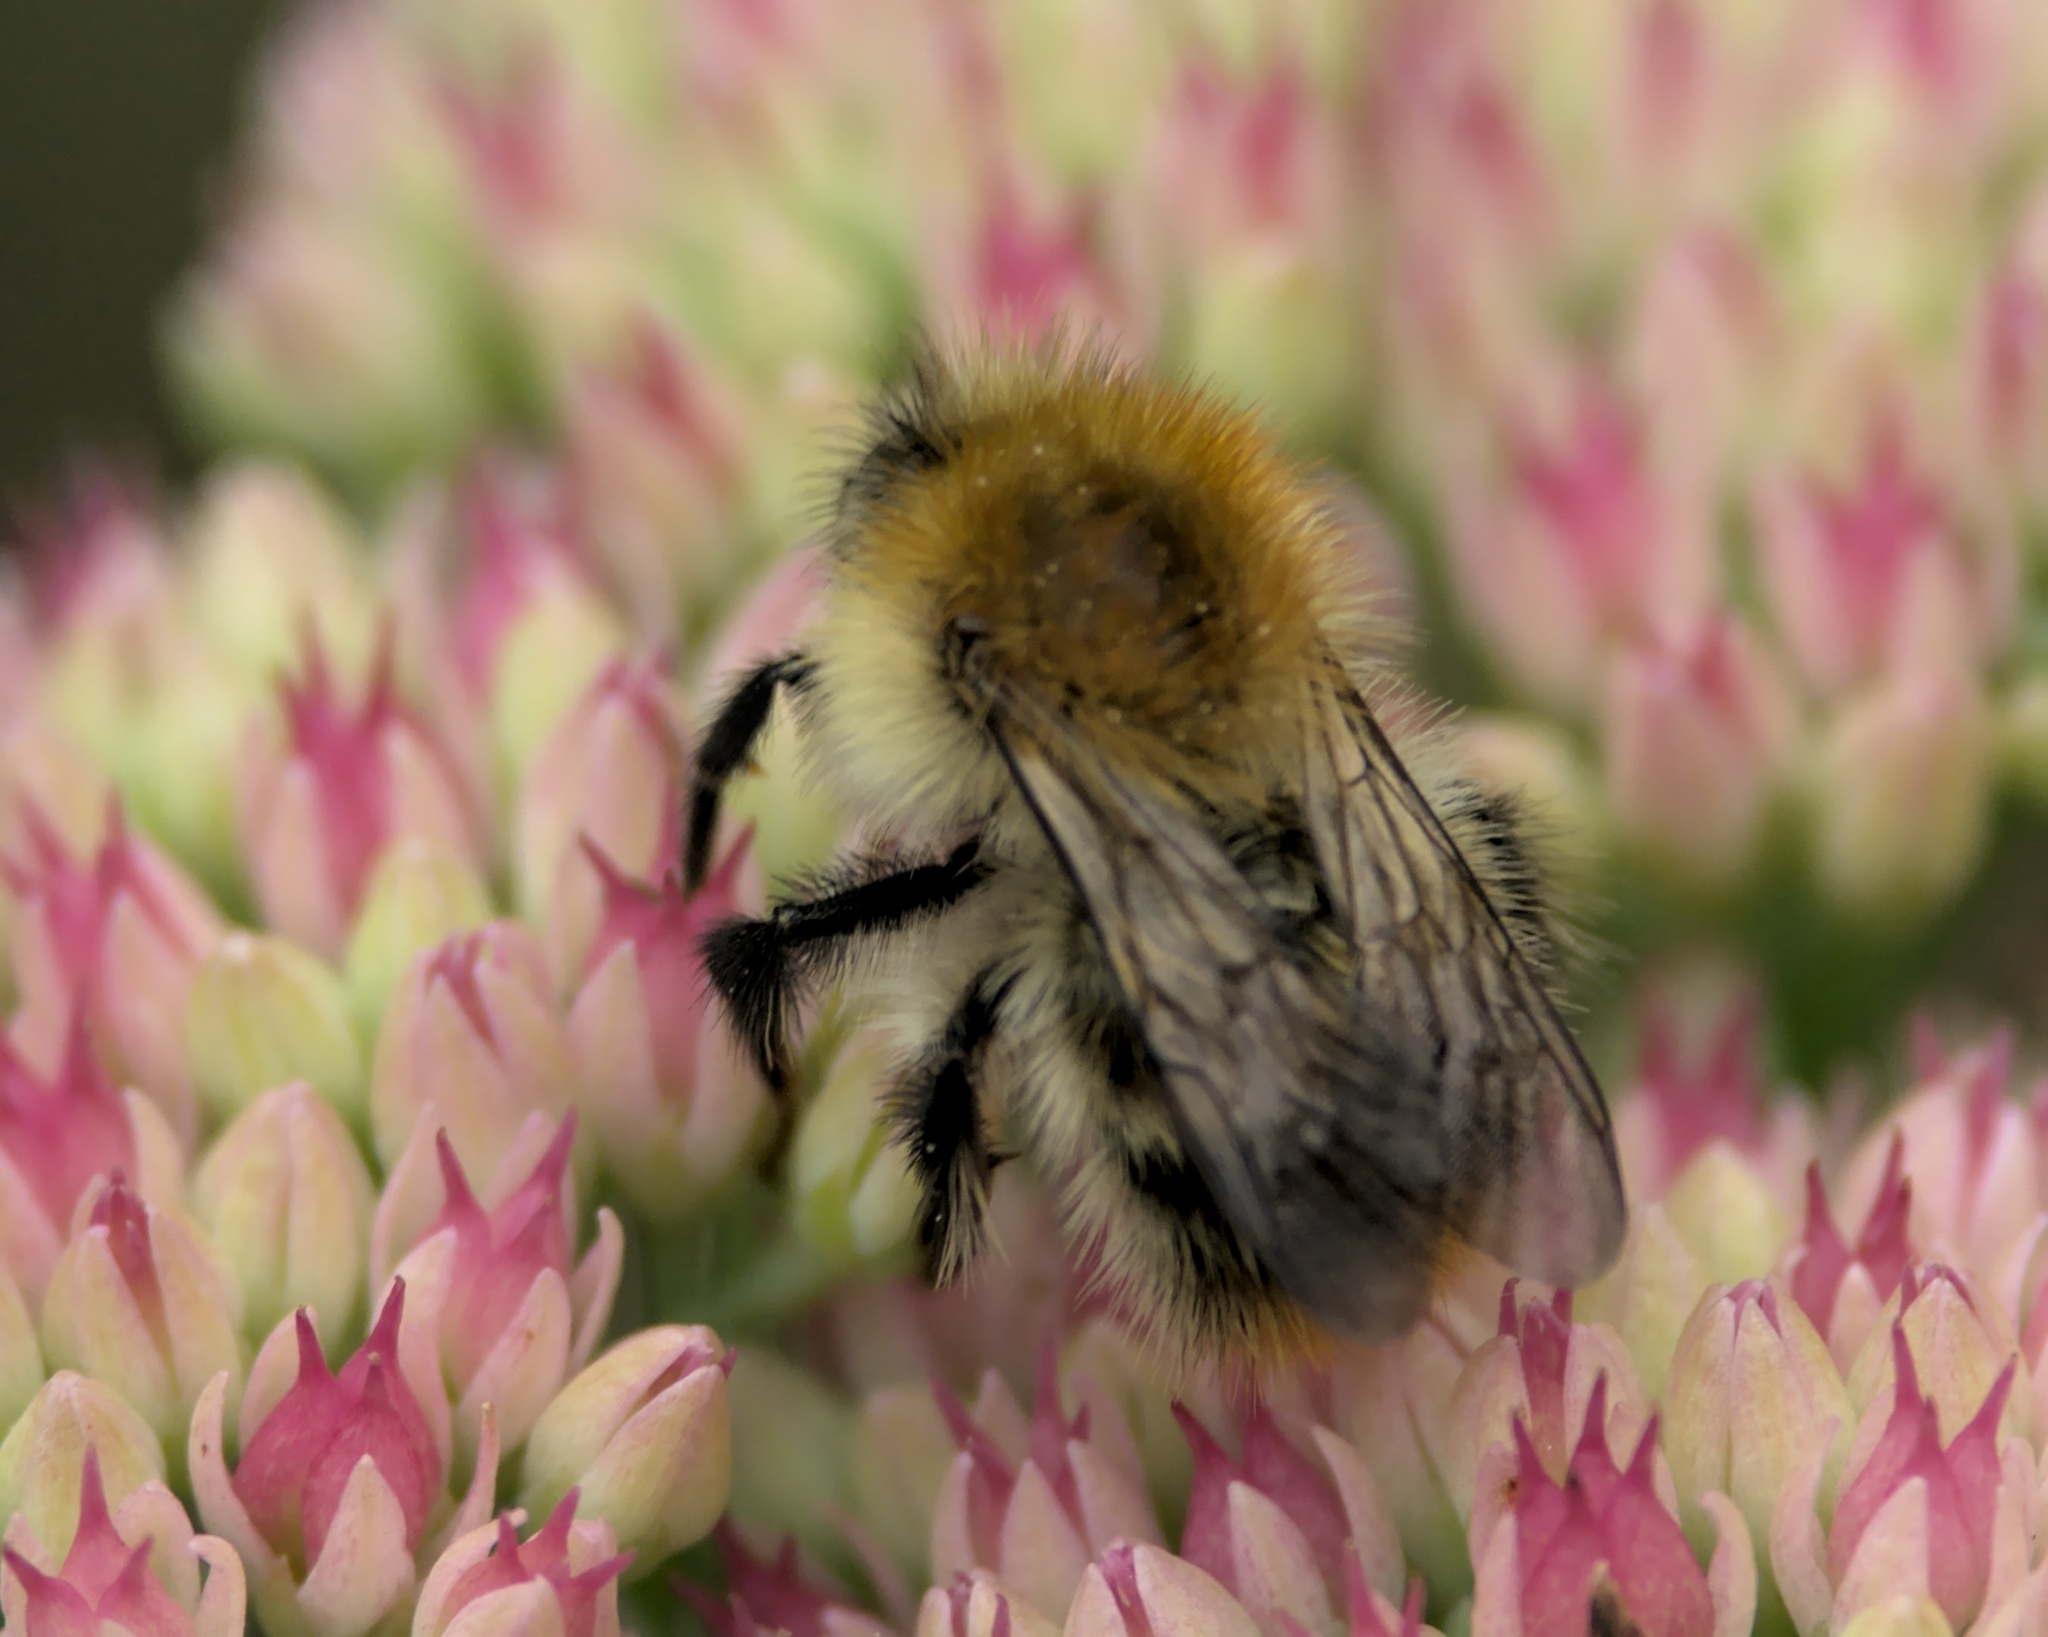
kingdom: Animalia
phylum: Arthropoda
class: Insecta
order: Hymenoptera
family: Apidae
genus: Bombus
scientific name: Bombus pascuorum
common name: Common carder bee
